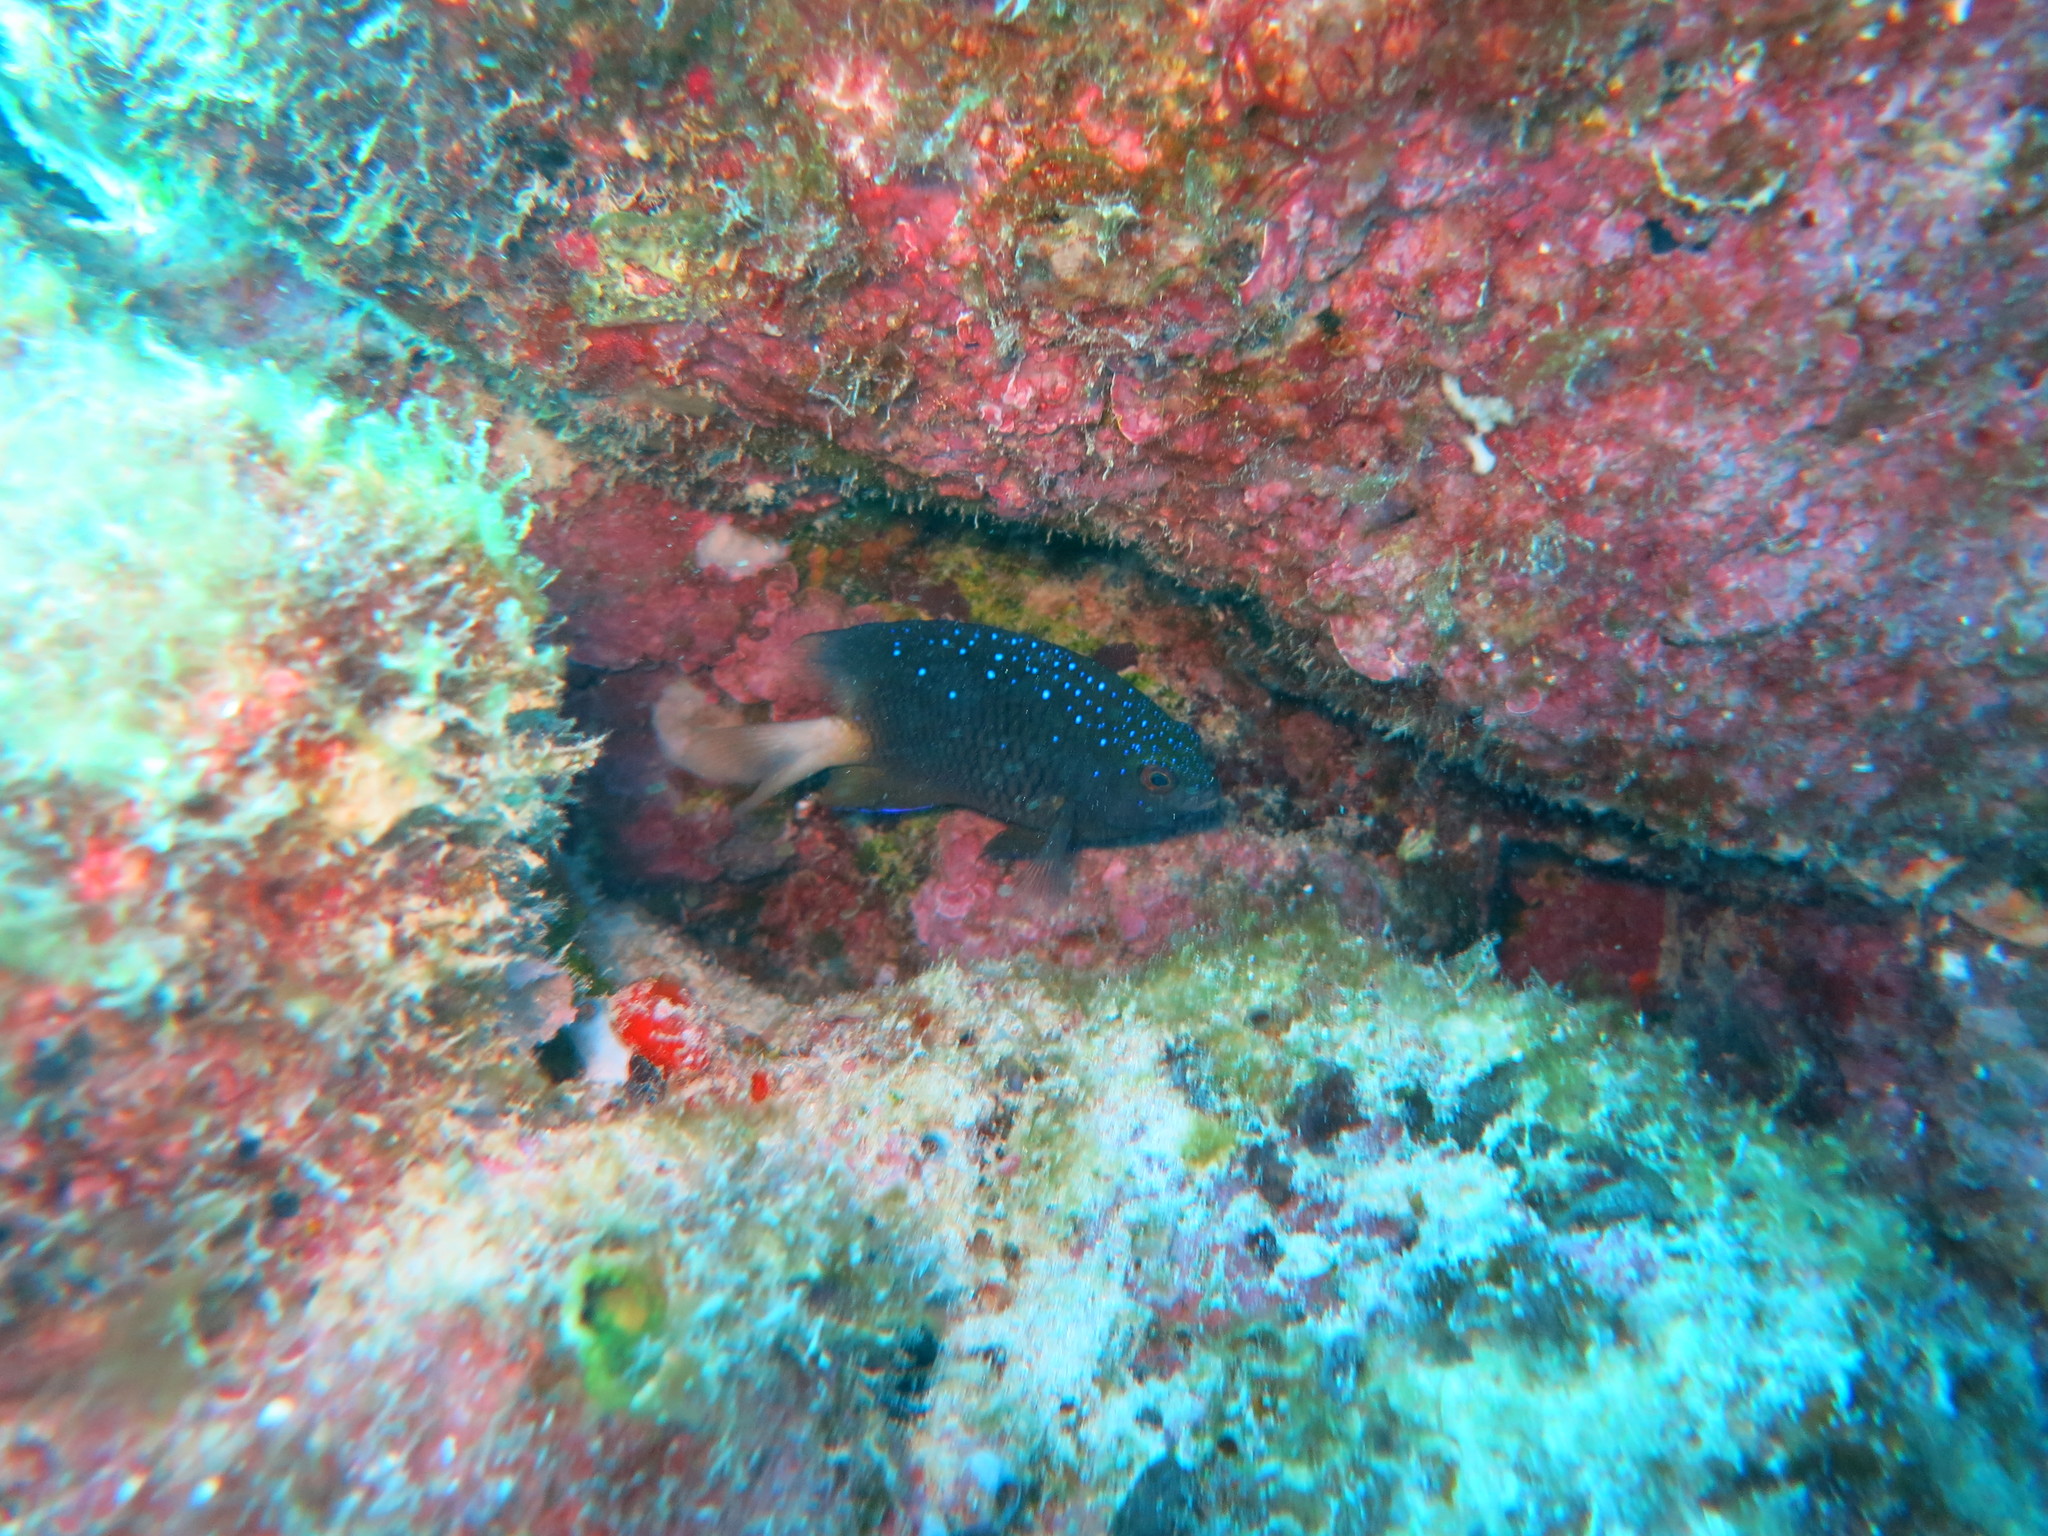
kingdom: Animalia
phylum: Chordata
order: Perciformes
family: Pomacentridae
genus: Plectroglyphidodon
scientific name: Plectroglyphidodon lacrymatus
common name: Jewel damsel
